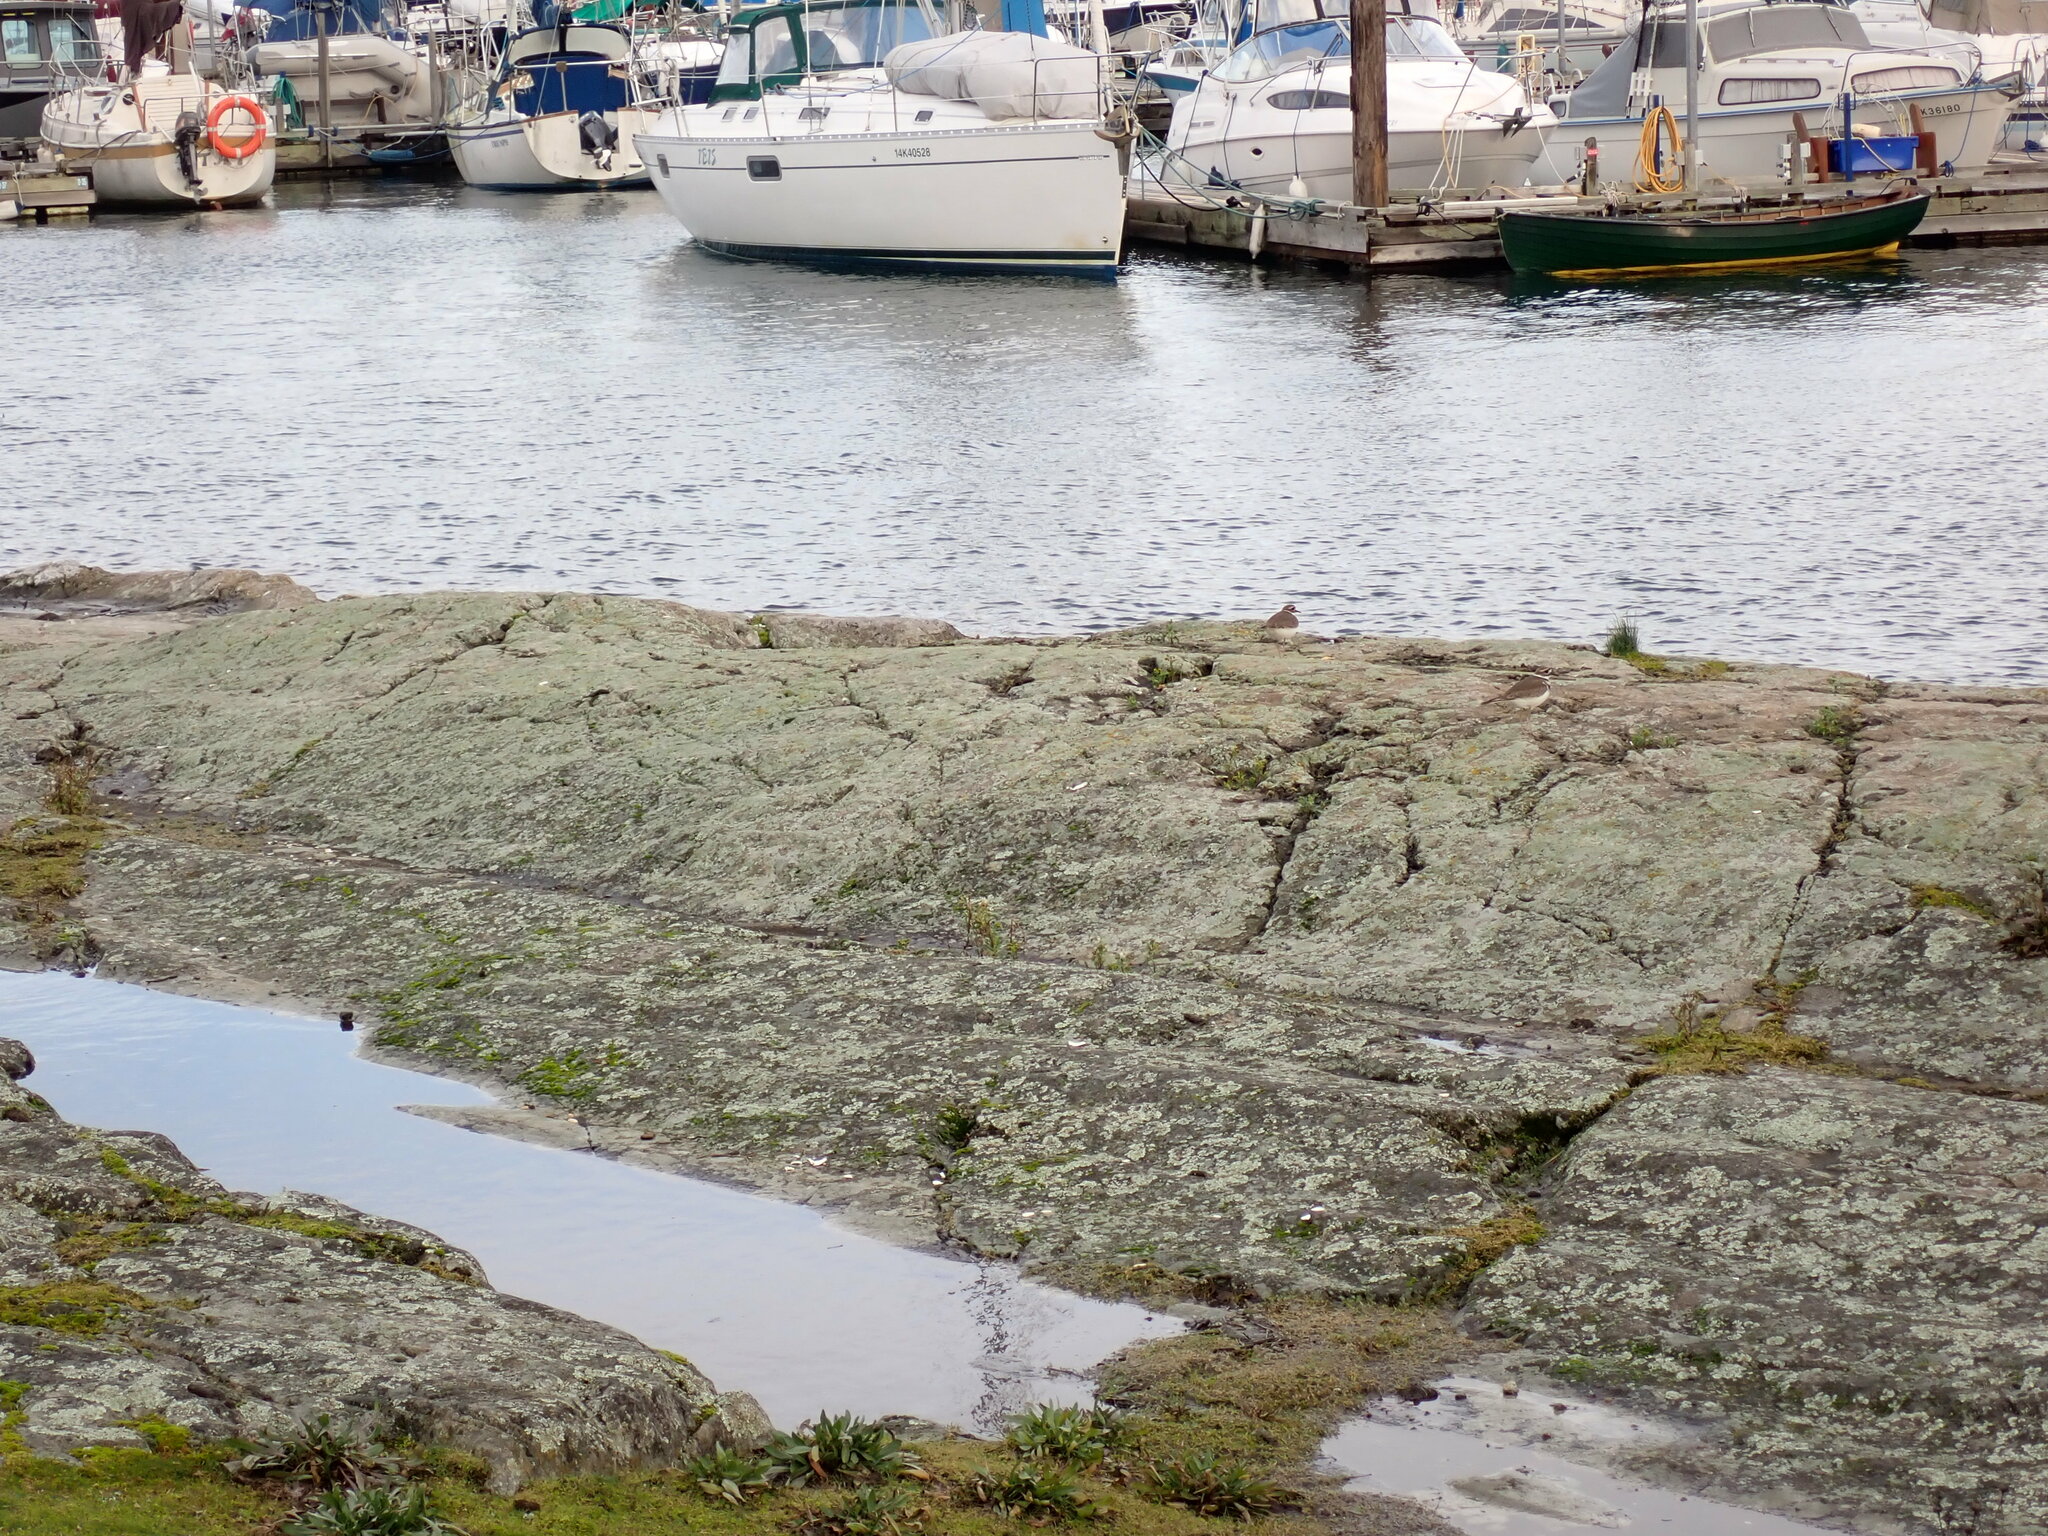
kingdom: Animalia
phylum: Chordata
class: Aves
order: Charadriiformes
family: Charadriidae
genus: Charadrius
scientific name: Charadrius vociferus
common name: Killdeer
